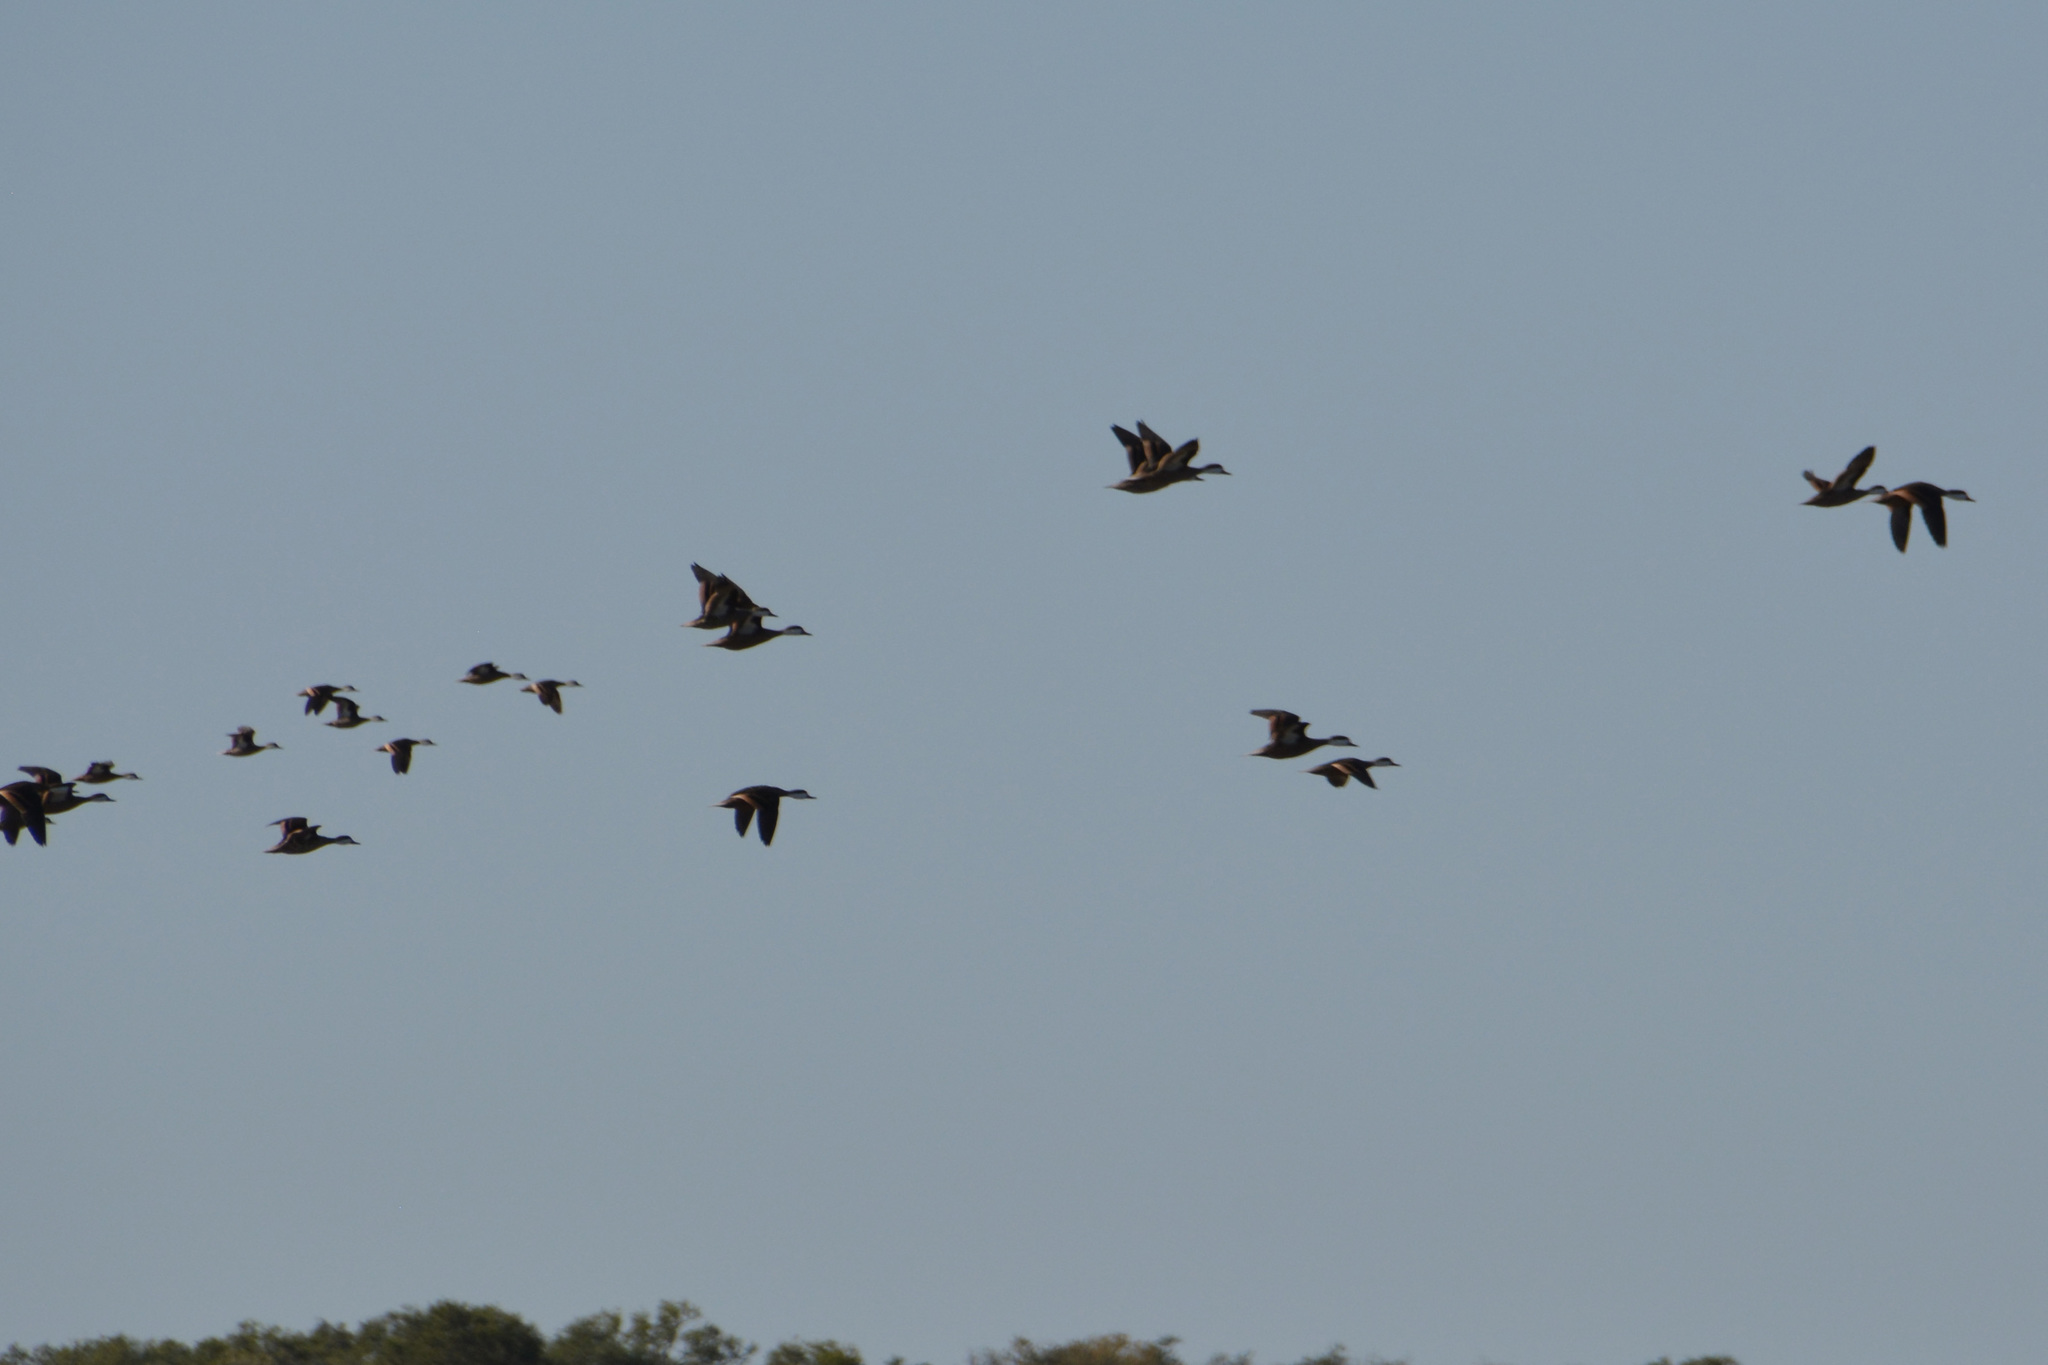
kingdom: Animalia
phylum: Chordata
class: Aves
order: Anseriformes
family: Anatidae
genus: Anas
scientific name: Anas bahamensis
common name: White-cheeked pintail
